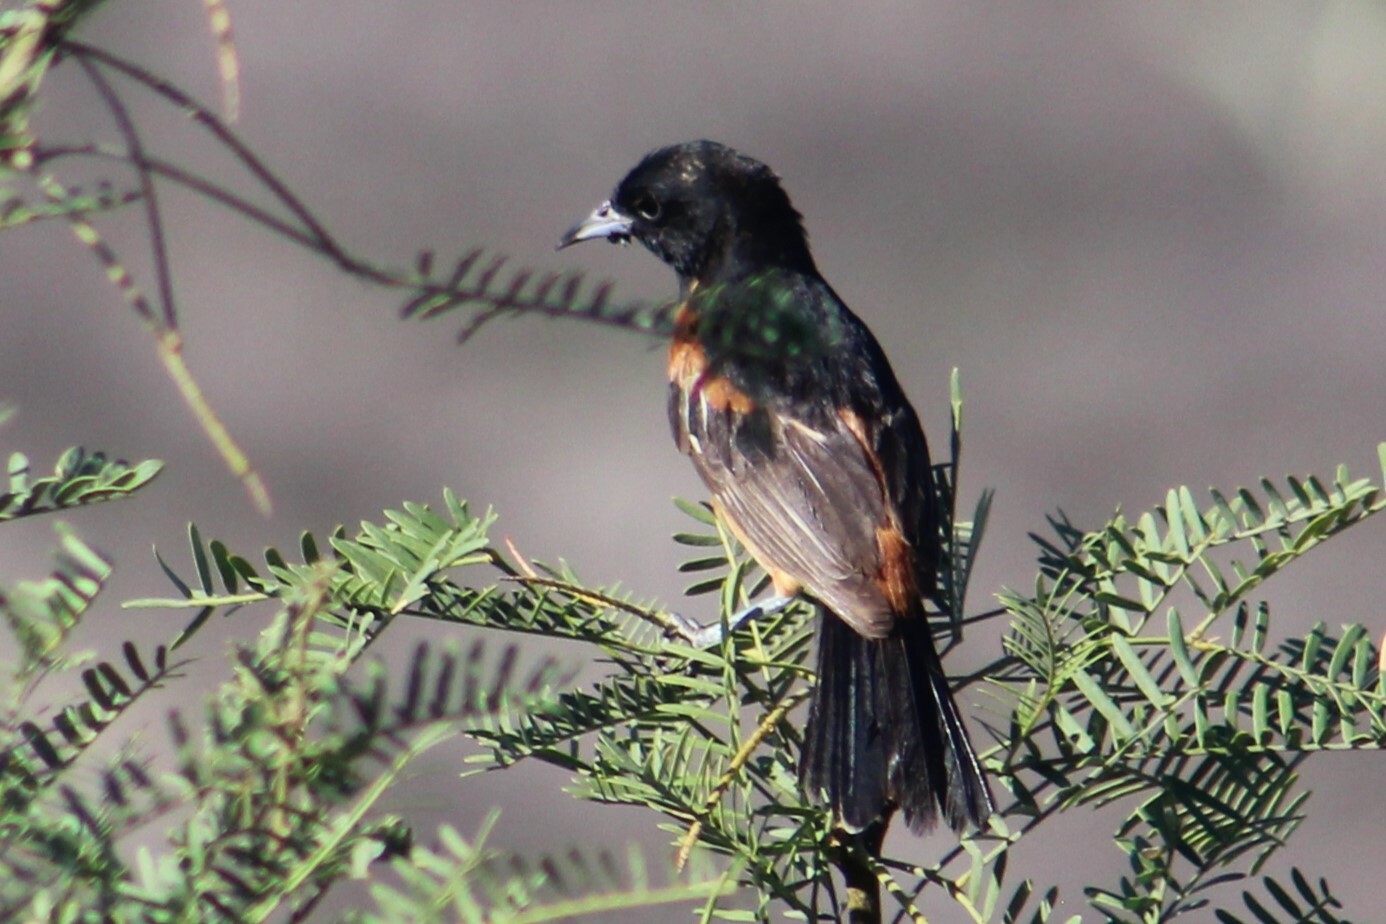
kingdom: Animalia
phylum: Chordata
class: Aves
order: Passeriformes
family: Icteridae
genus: Icterus
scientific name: Icterus spurius
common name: Orchard oriole
